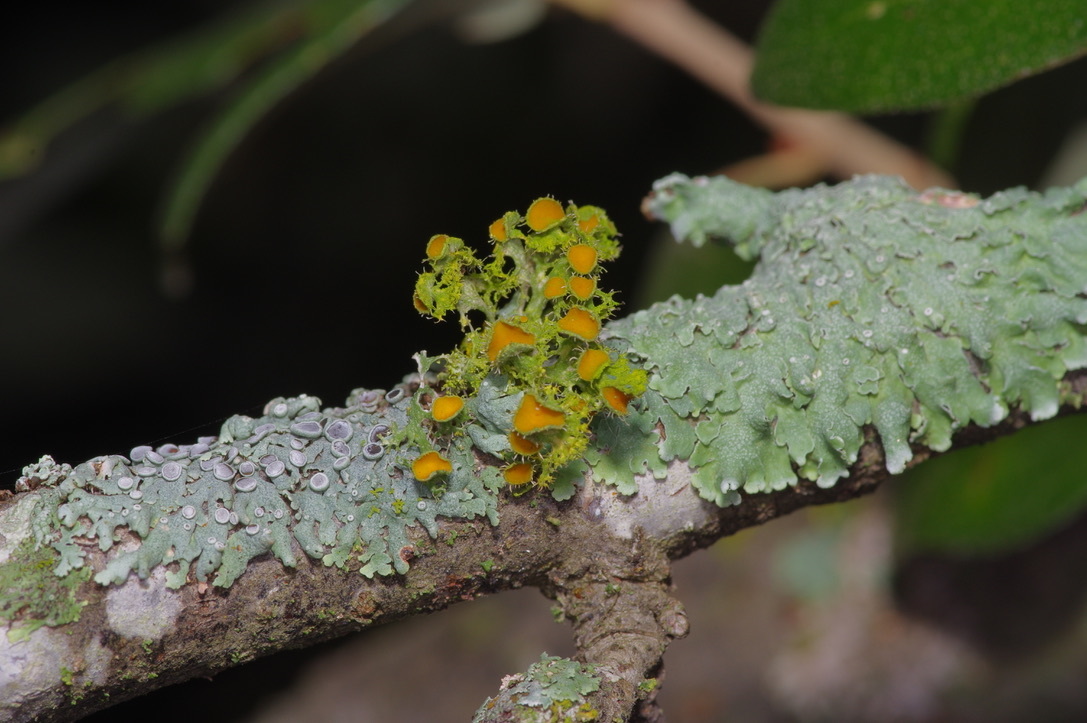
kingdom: Fungi
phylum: Ascomycota
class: Lecanoromycetes
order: Teloschistales
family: Teloschistaceae
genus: Niorma
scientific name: Niorma chrysophthalma
